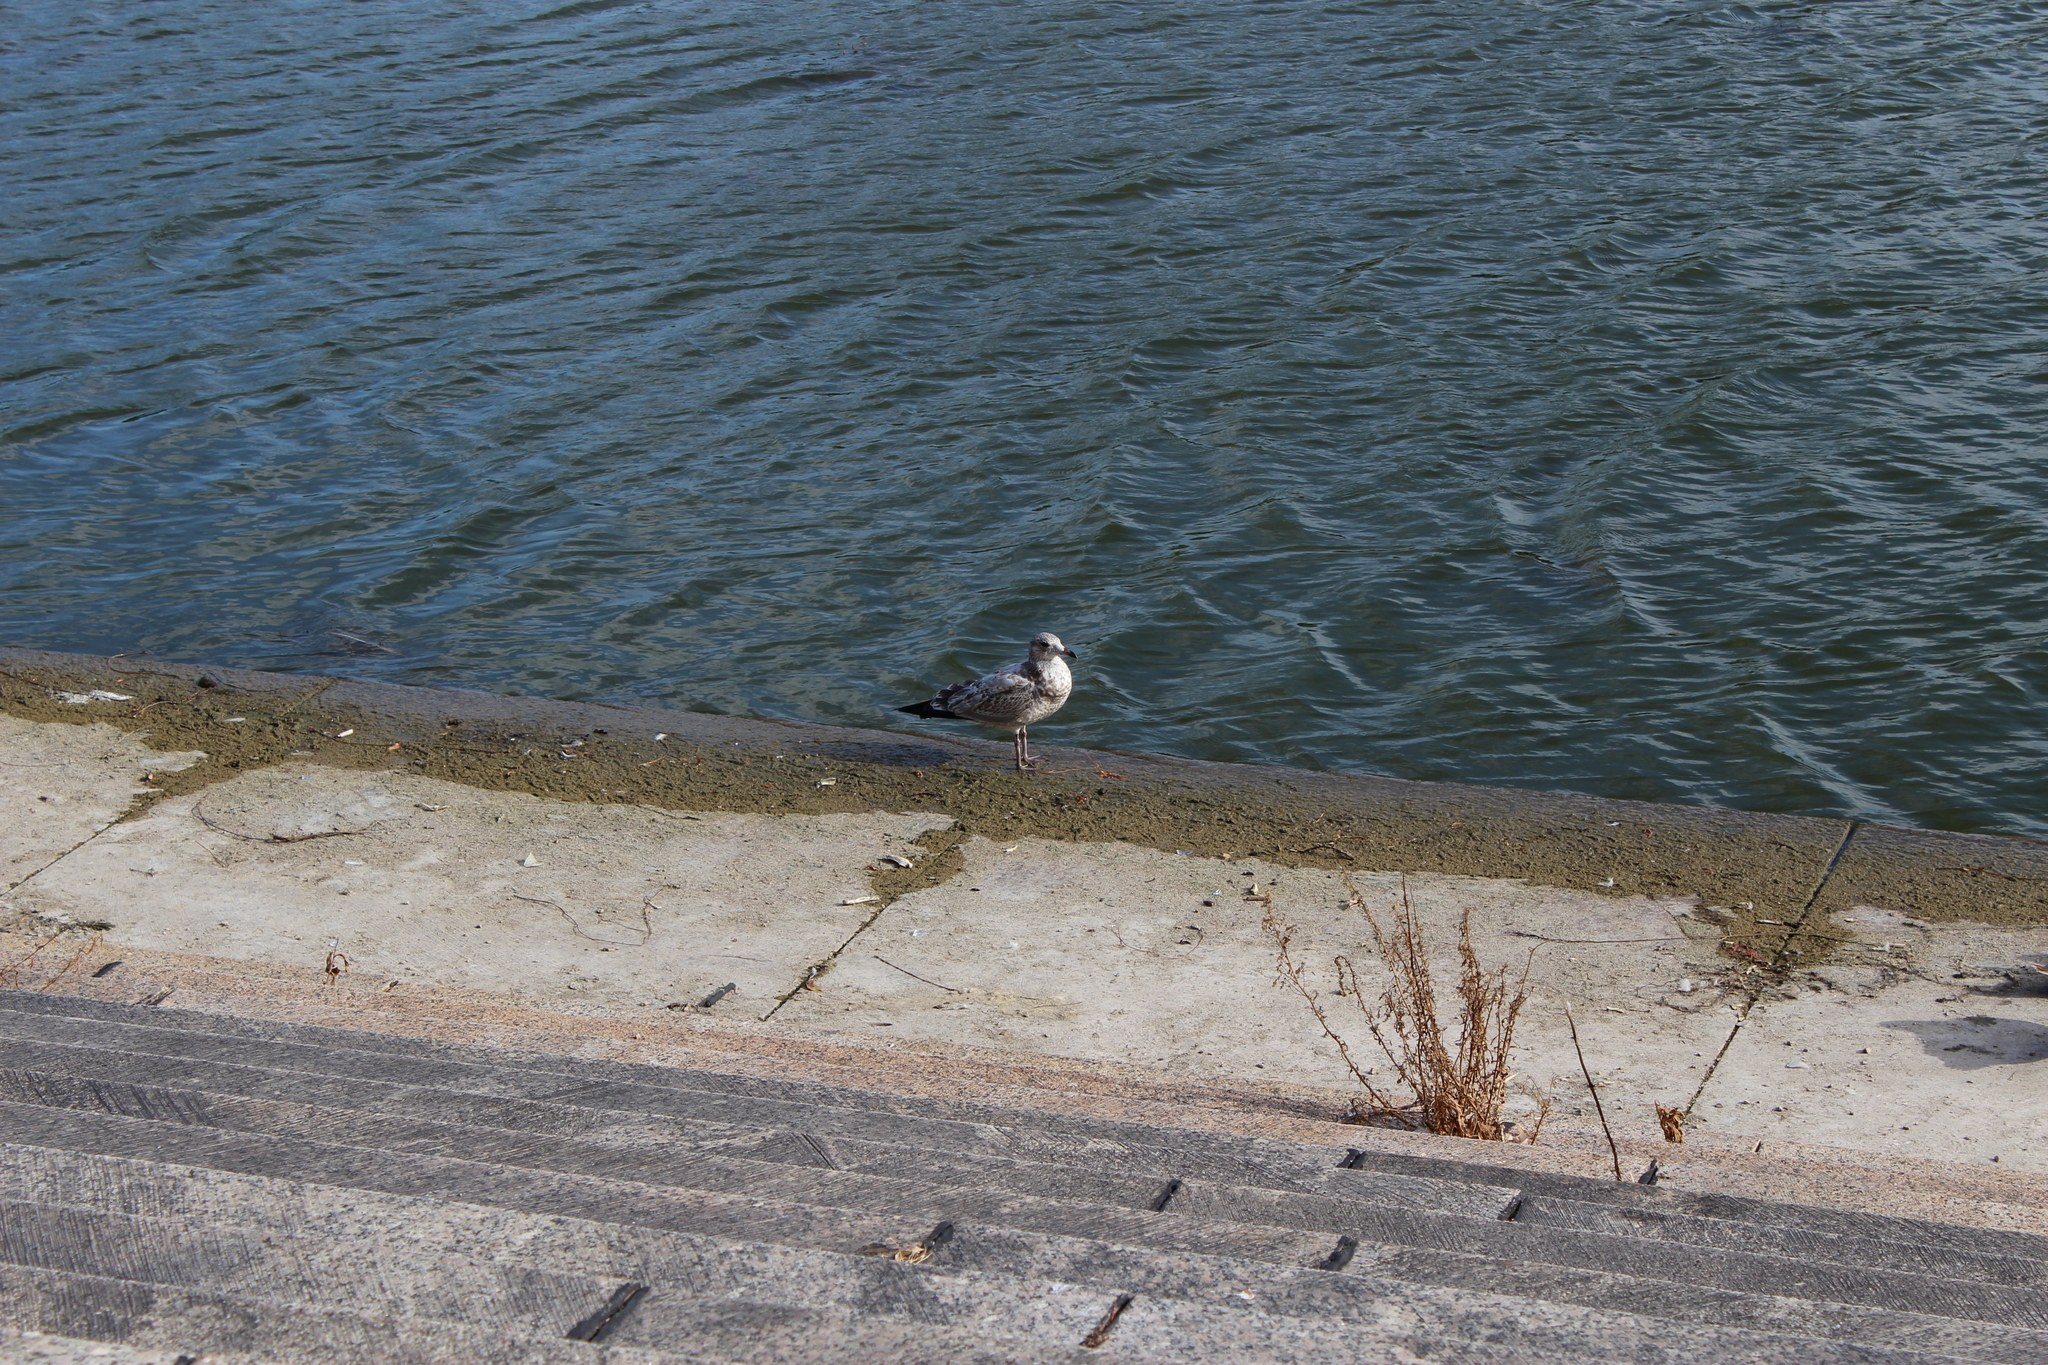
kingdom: Animalia
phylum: Chordata
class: Aves
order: Charadriiformes
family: Laridae
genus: Larus
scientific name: Larus delawarensis
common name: Ring-billed gull
